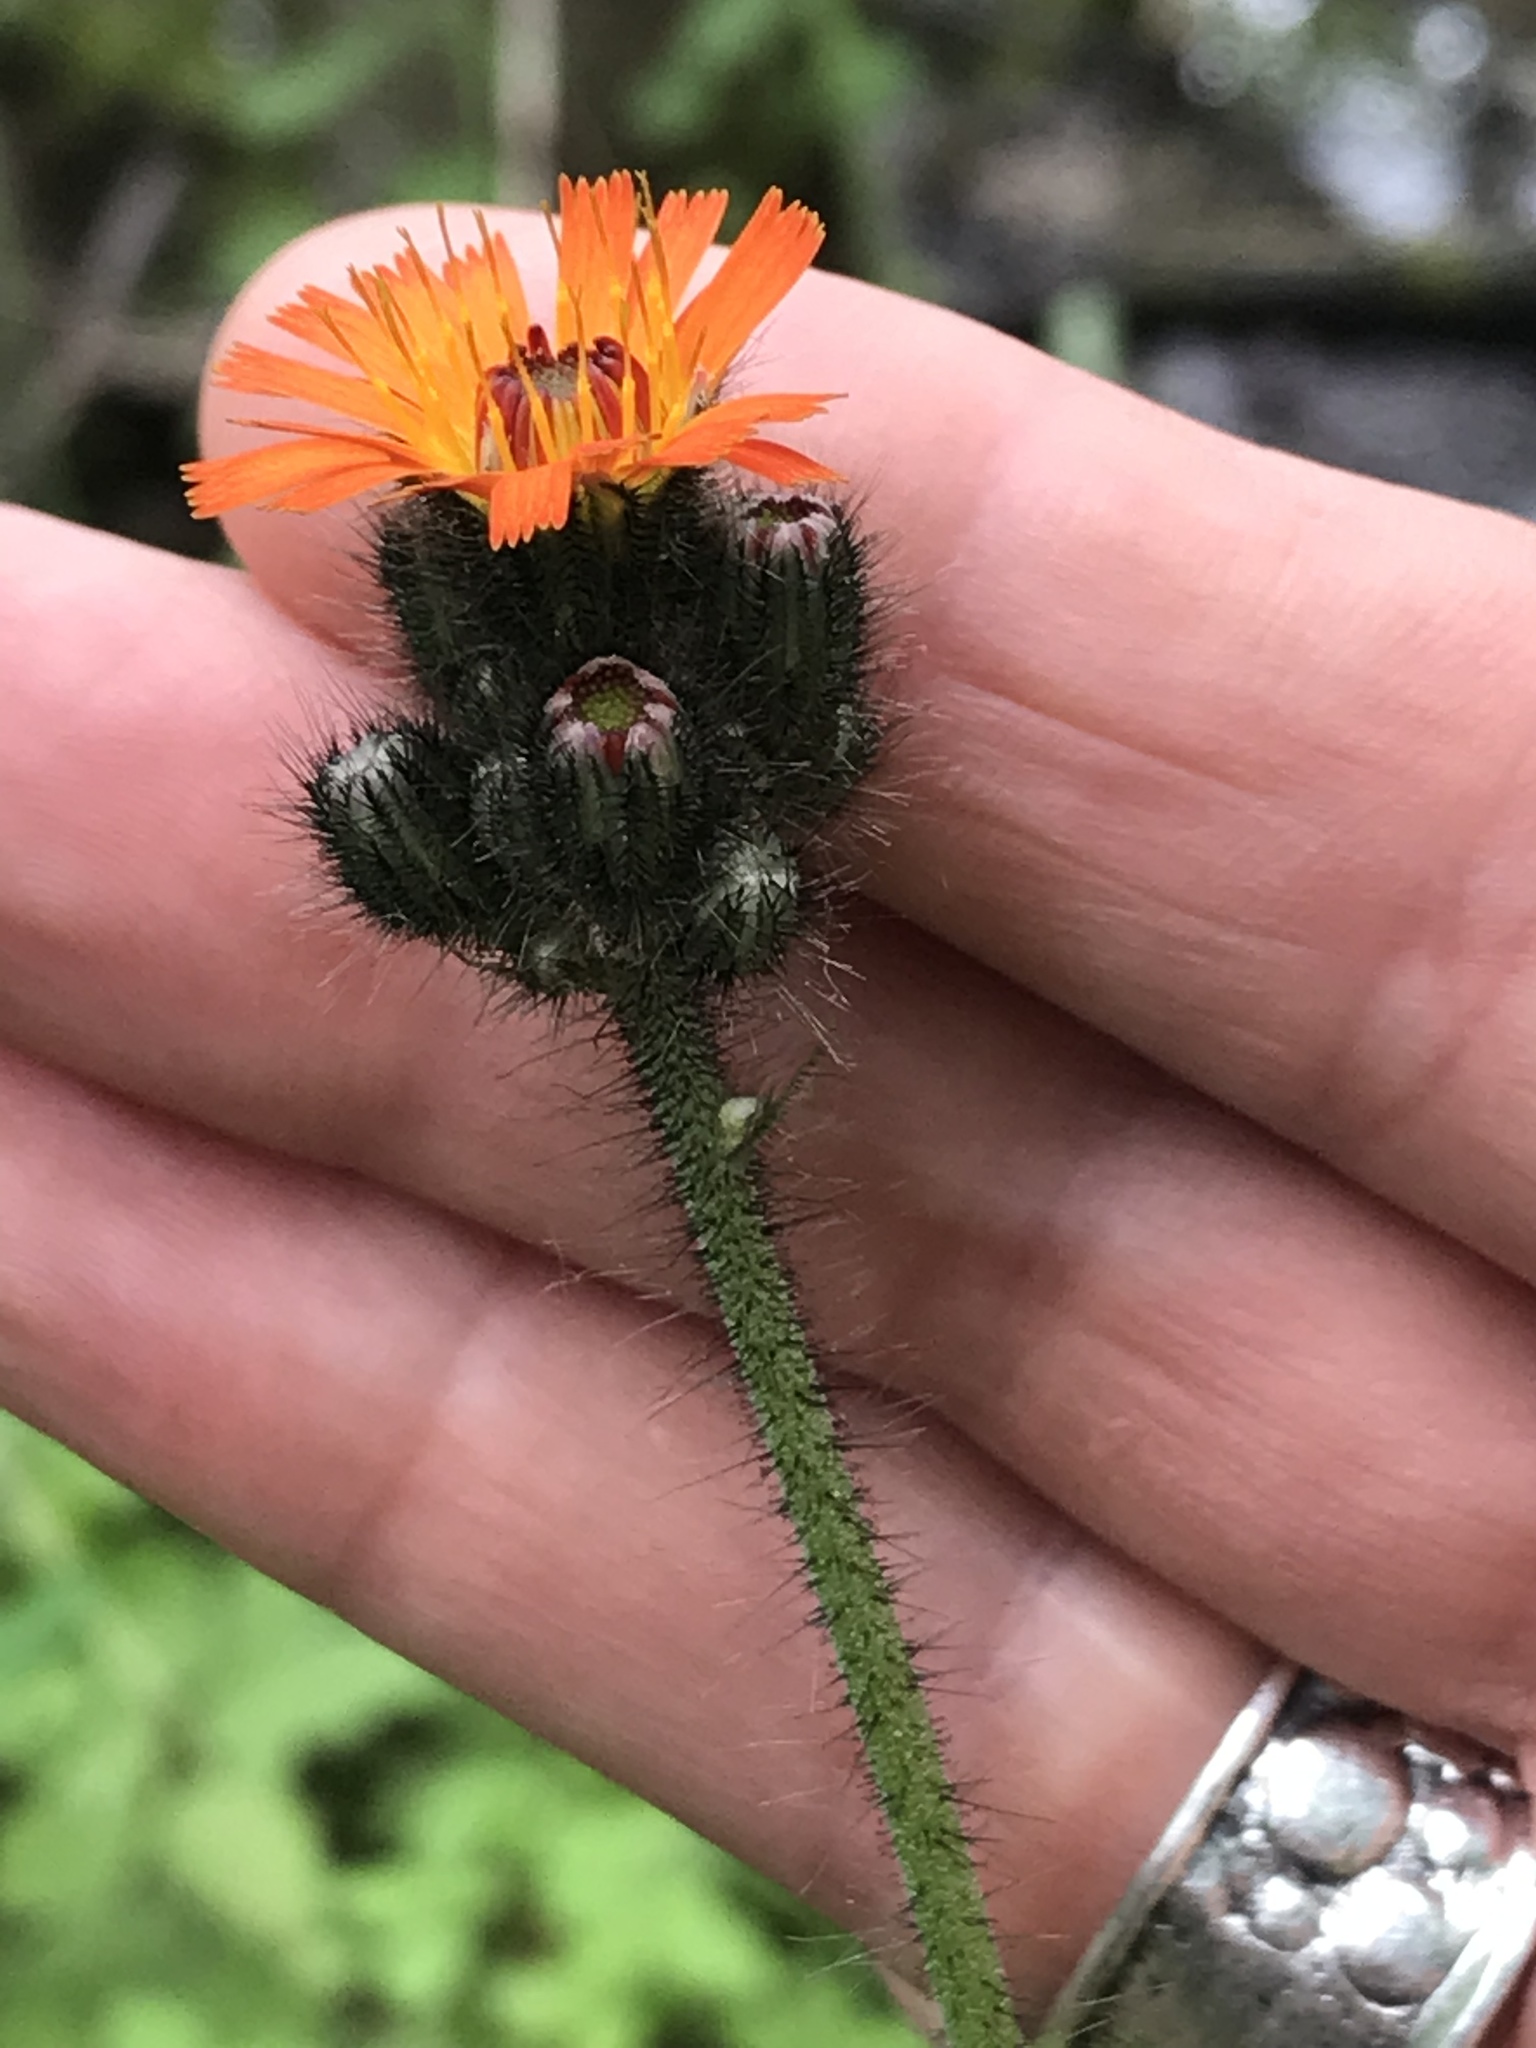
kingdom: Plantae
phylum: Tracheophyta
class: Magnoliopsida
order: Asterales
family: Asteraceae
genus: Pilosella
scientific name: Pilosella aurantiaca
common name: Fox-and-cubs
